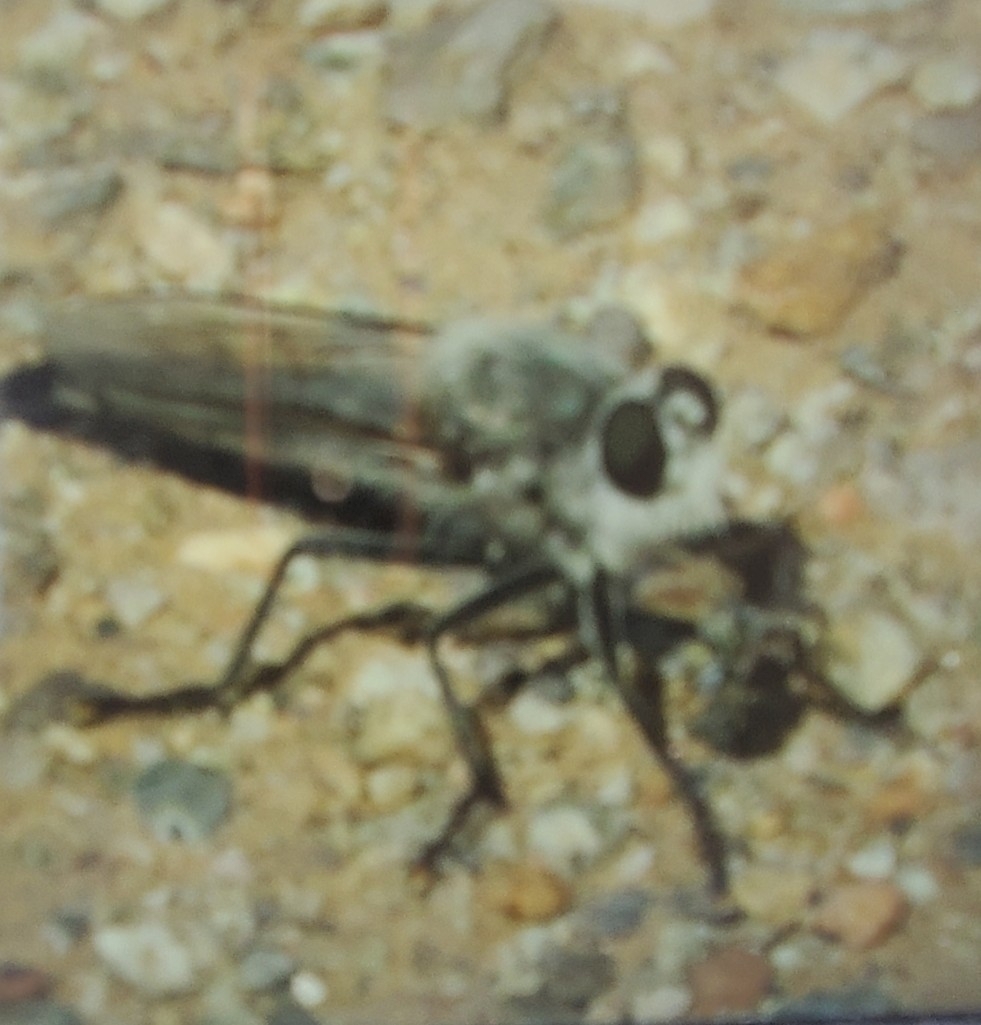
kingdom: Animalia
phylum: Arthropoda
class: Insecta
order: Diptera
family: Asilidae
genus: Proctacanthus
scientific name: Proctacanthus coquillettii
